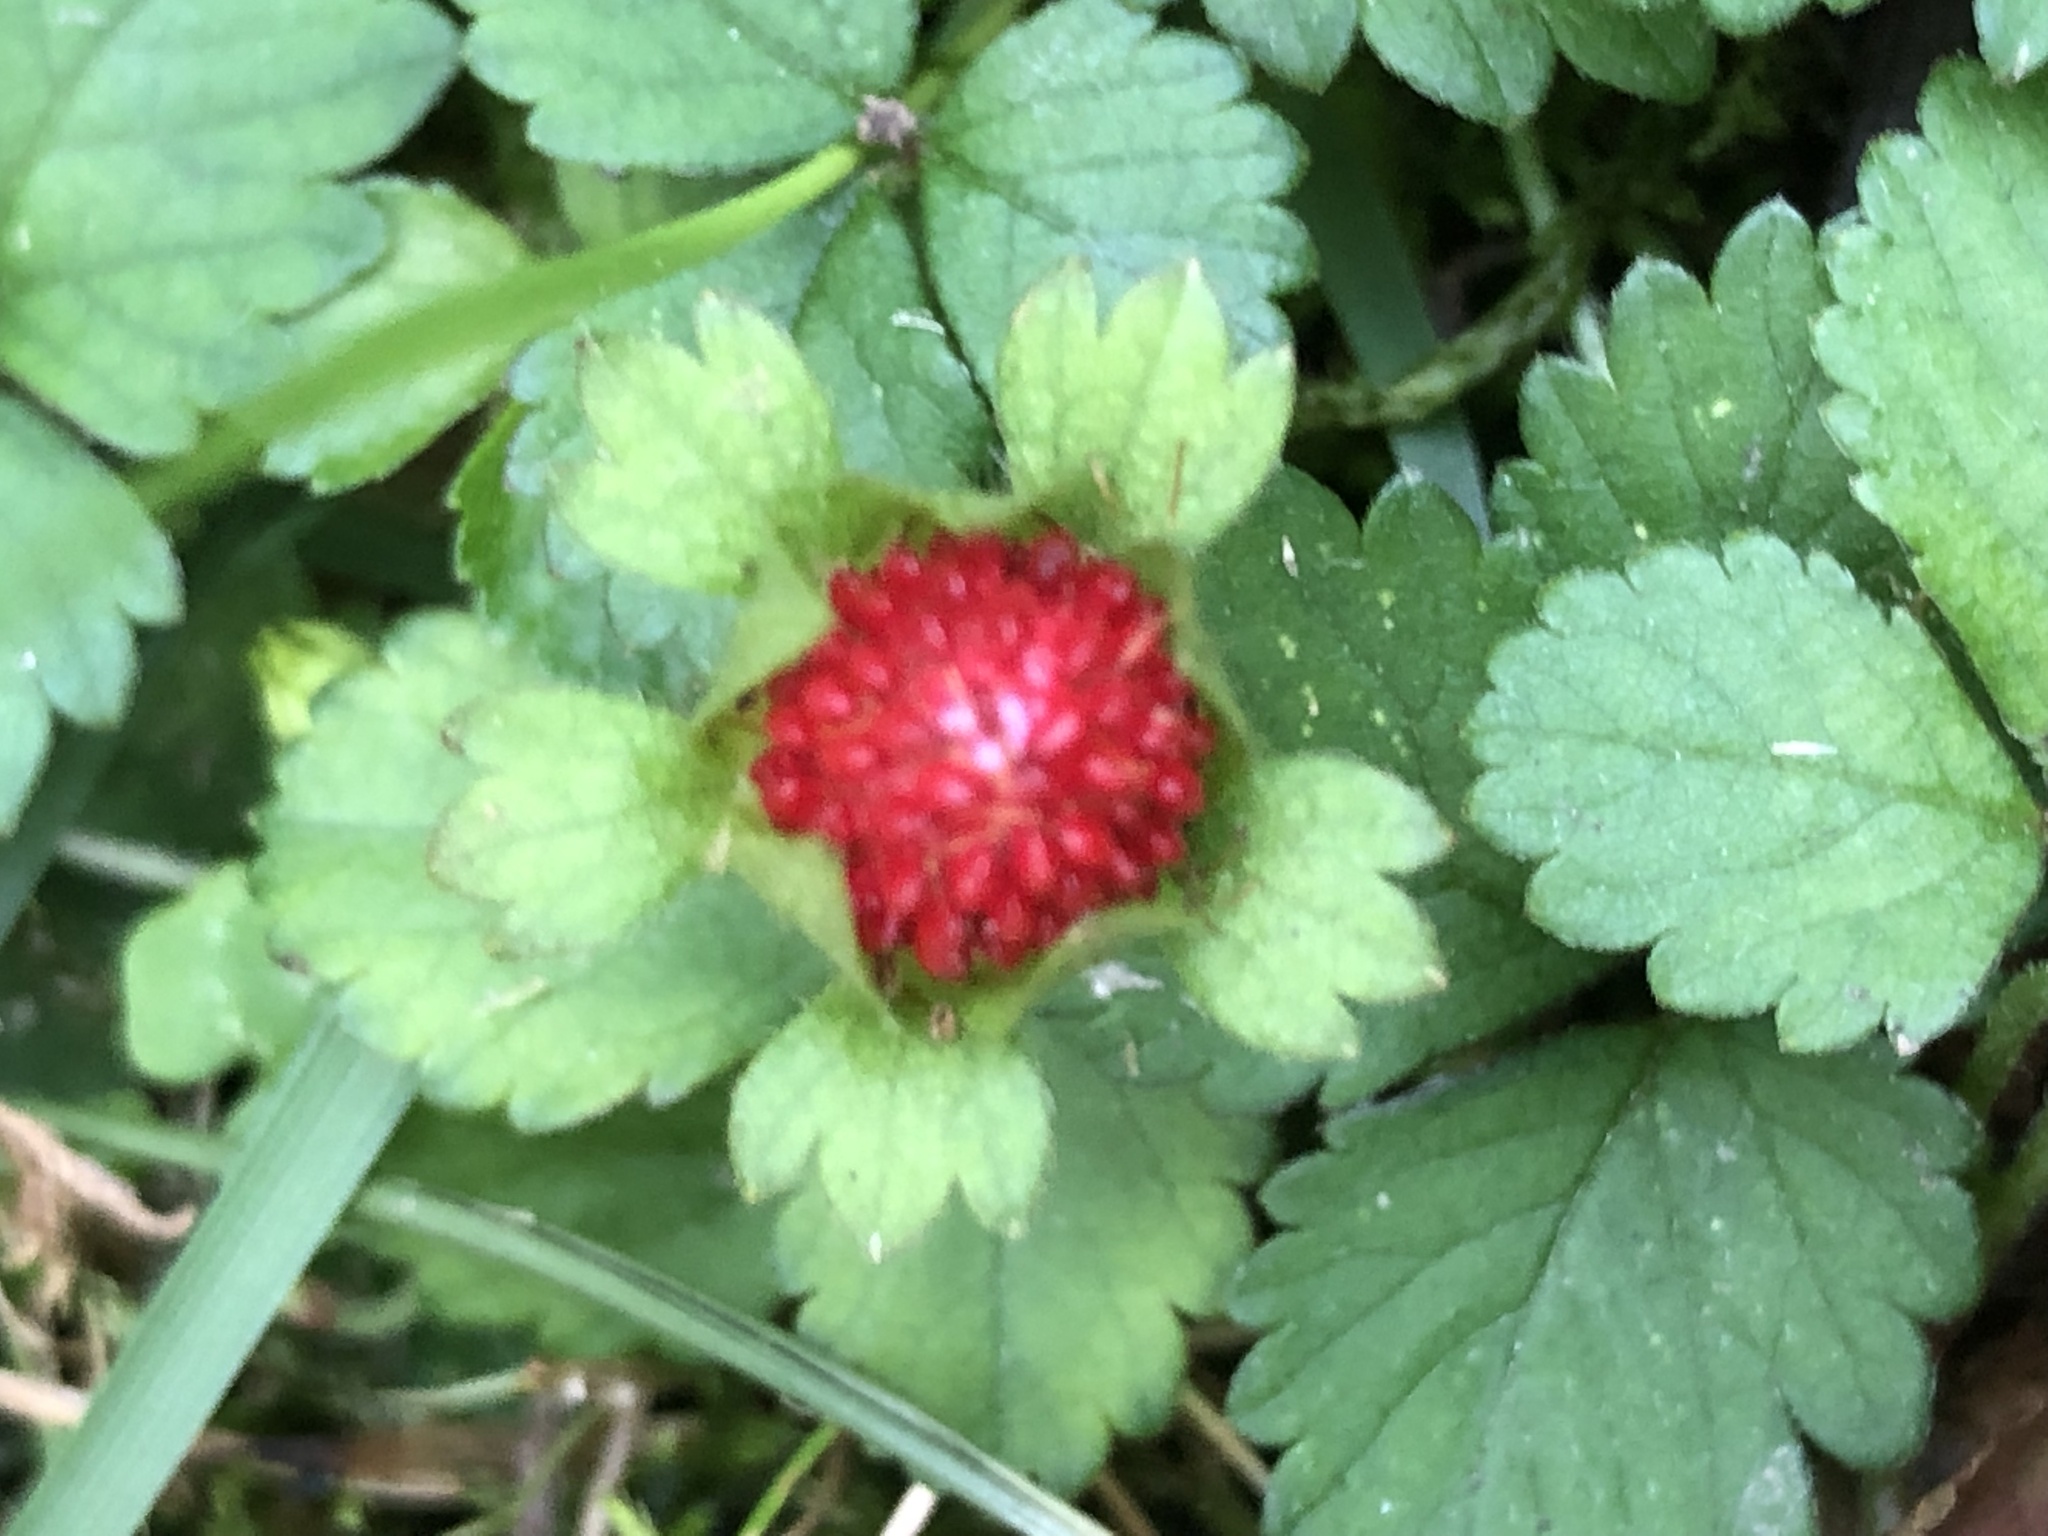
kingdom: Plantae
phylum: Tracheophyta
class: Magnoliopsida
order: Rosales
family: Rosaceae
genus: Potentilla
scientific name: Potentilla indica
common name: Yellow-flowered strawberry
